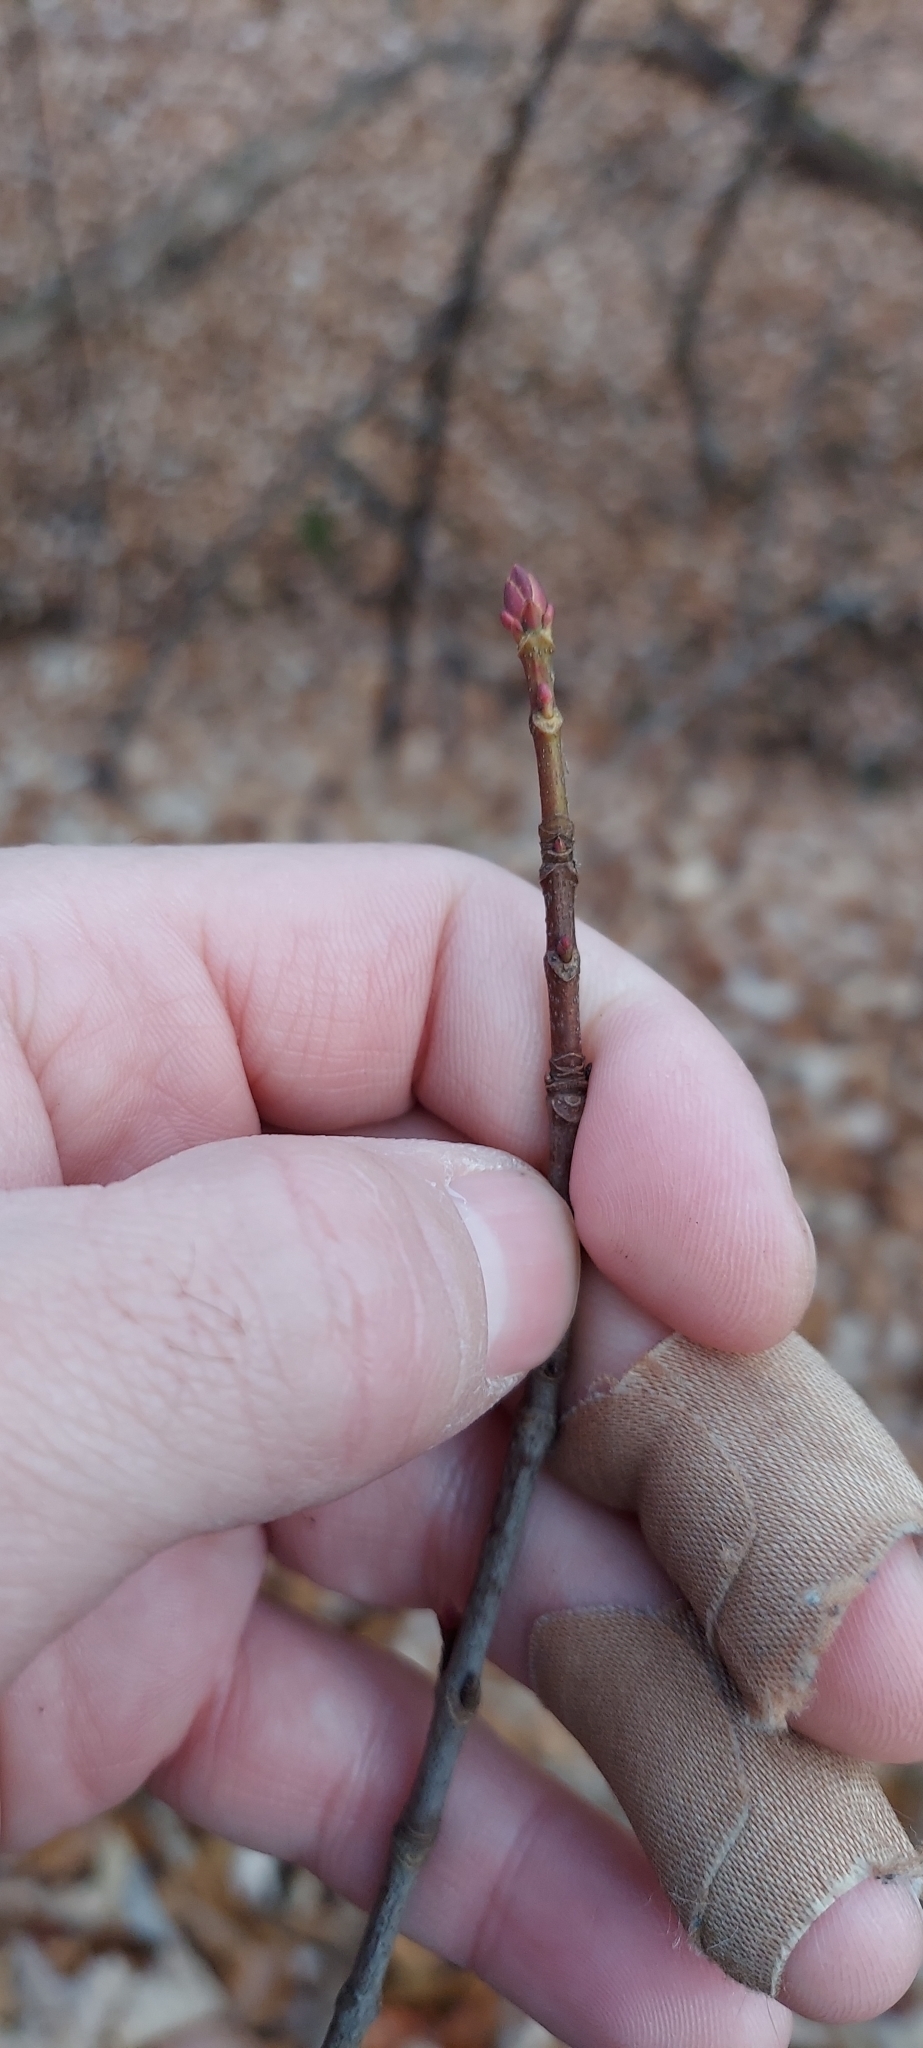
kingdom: Plantae
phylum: Tracheophyta
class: Magnoliopsida
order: Fabales
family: Fabaceae
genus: Cercis
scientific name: Cercis canadensis
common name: Eastern redbud
